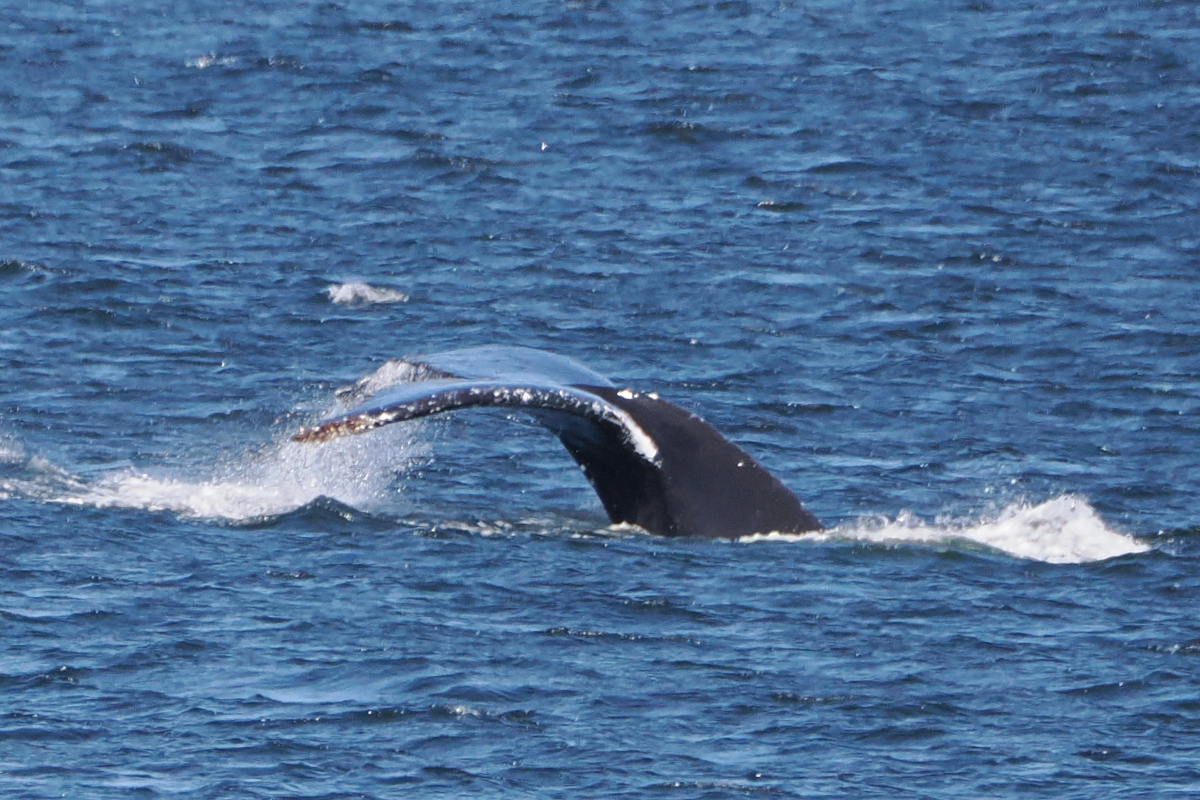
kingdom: Animalia
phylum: Chordata
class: Mammalia
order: Cetacea
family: Balaenopteridae
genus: Megaptera
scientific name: Megaptera novaeangliae
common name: Humpback whale
